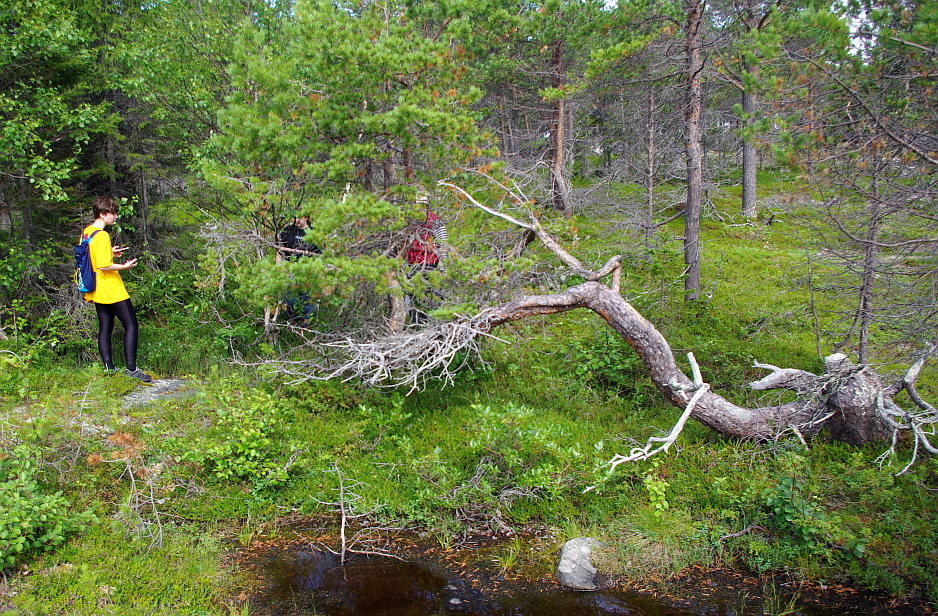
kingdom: Plantae
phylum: Tracheophyta
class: Pinopsida
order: Pinales
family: Pinaceae
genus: Pinus
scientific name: Pinus sylvestris
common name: Scots pine
